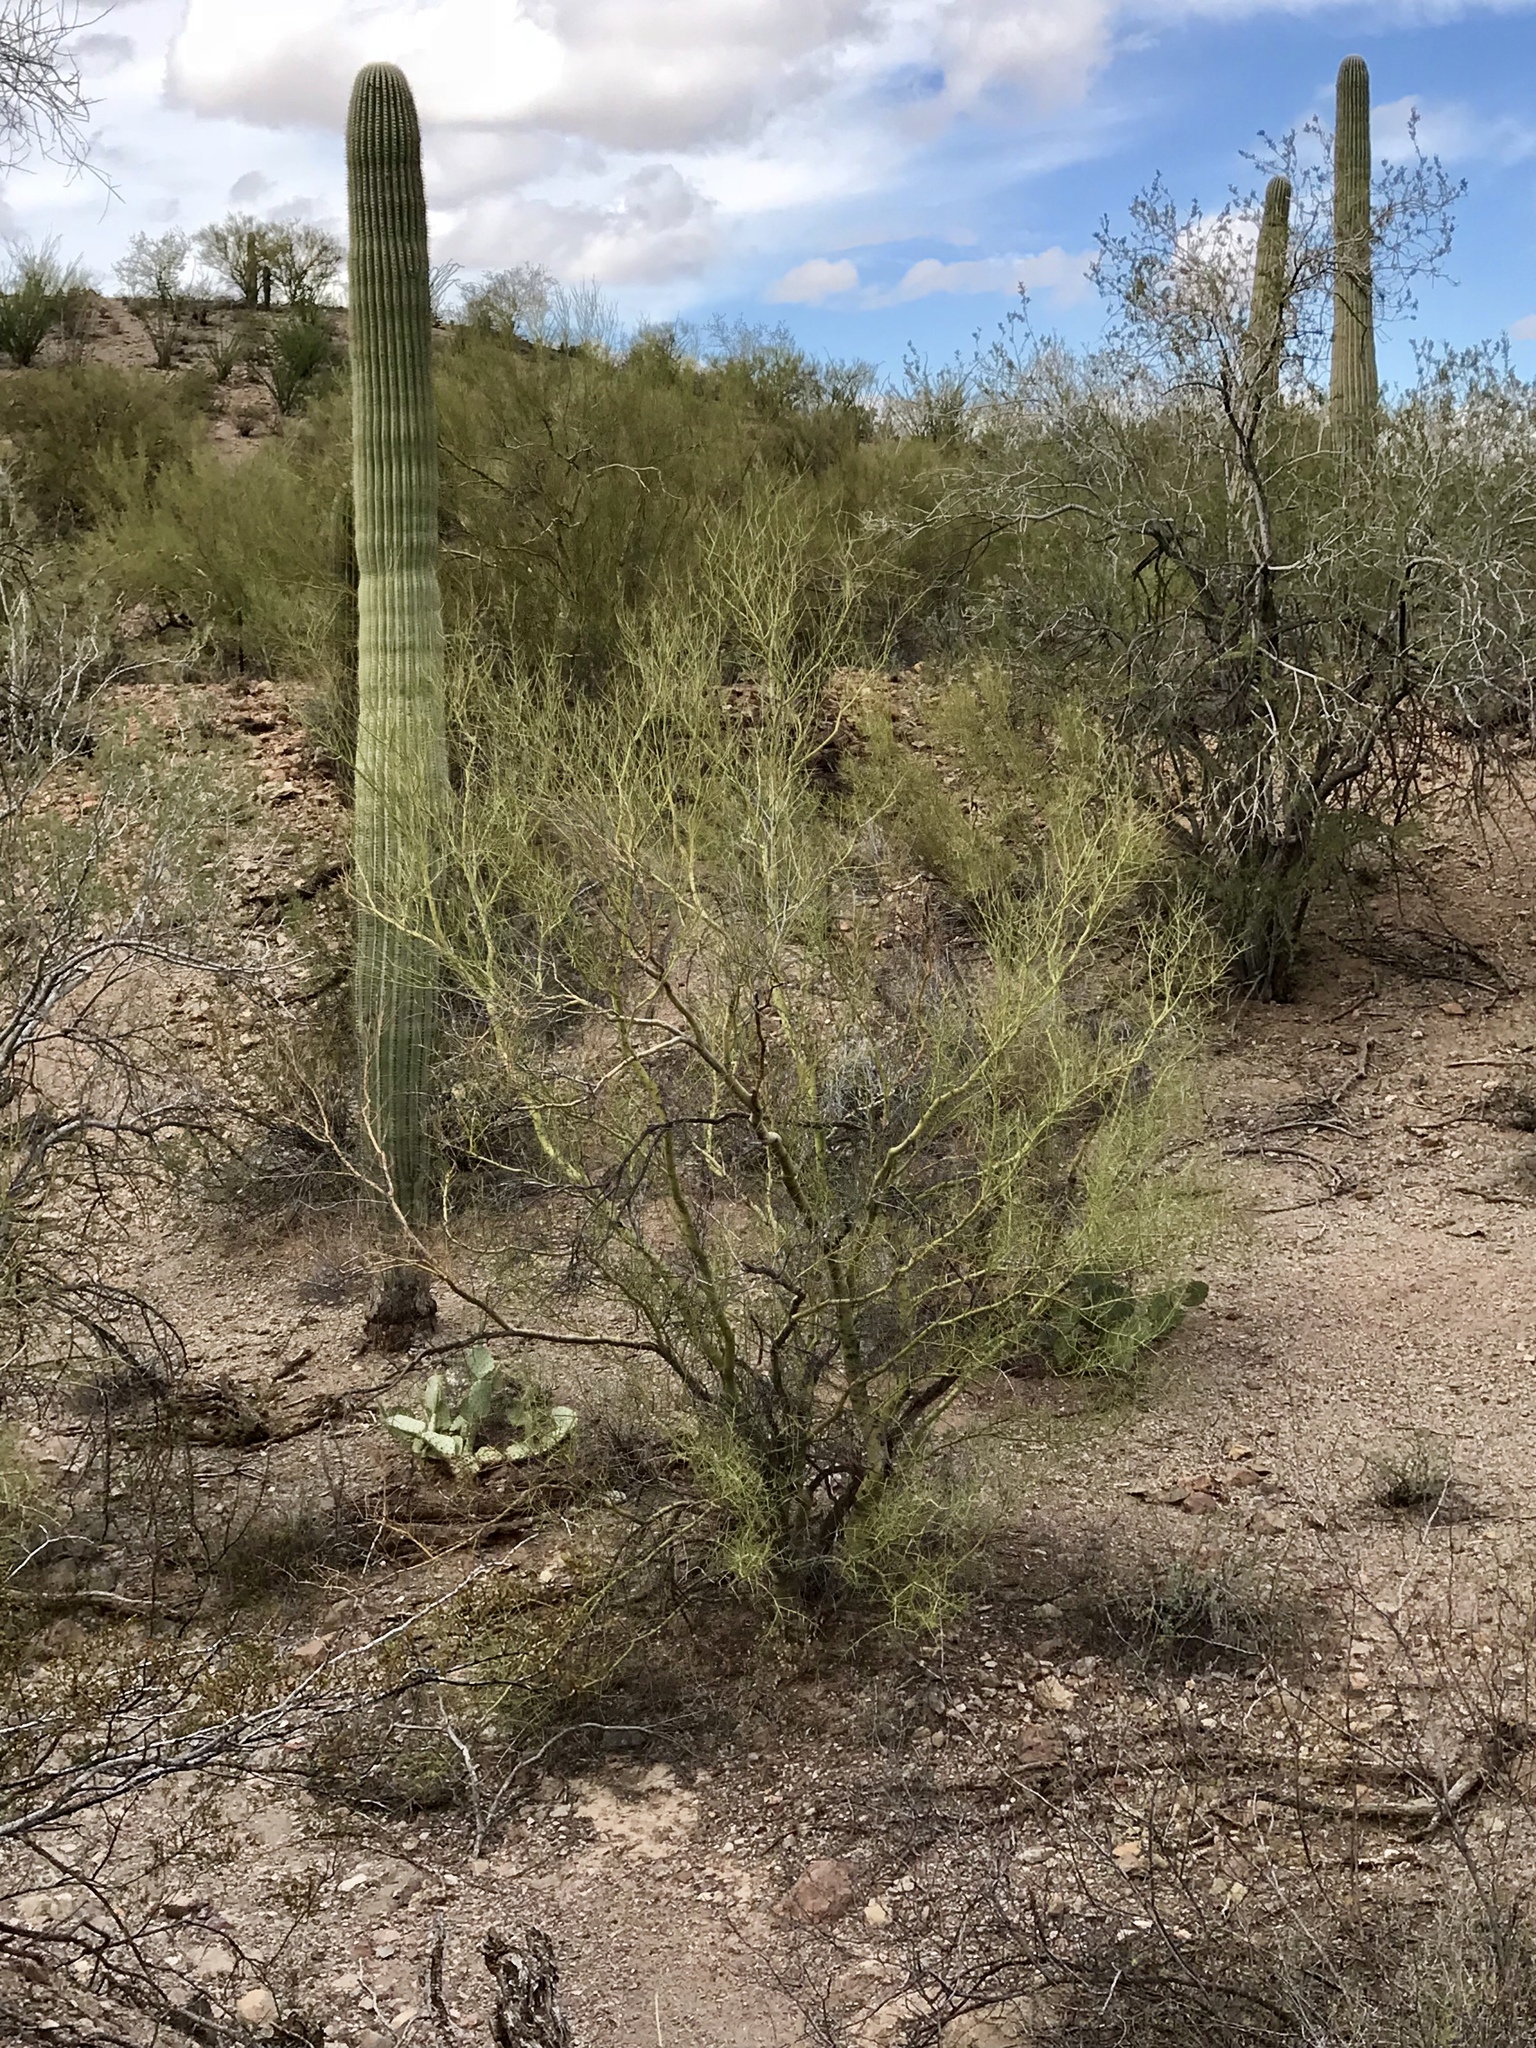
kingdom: Plantae
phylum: Tracheophyta
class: Magnoliopsida
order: Fabales
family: Fabaceae
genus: Parkinsonia
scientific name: Parkinsonia microphylla
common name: Yellow paloverde
